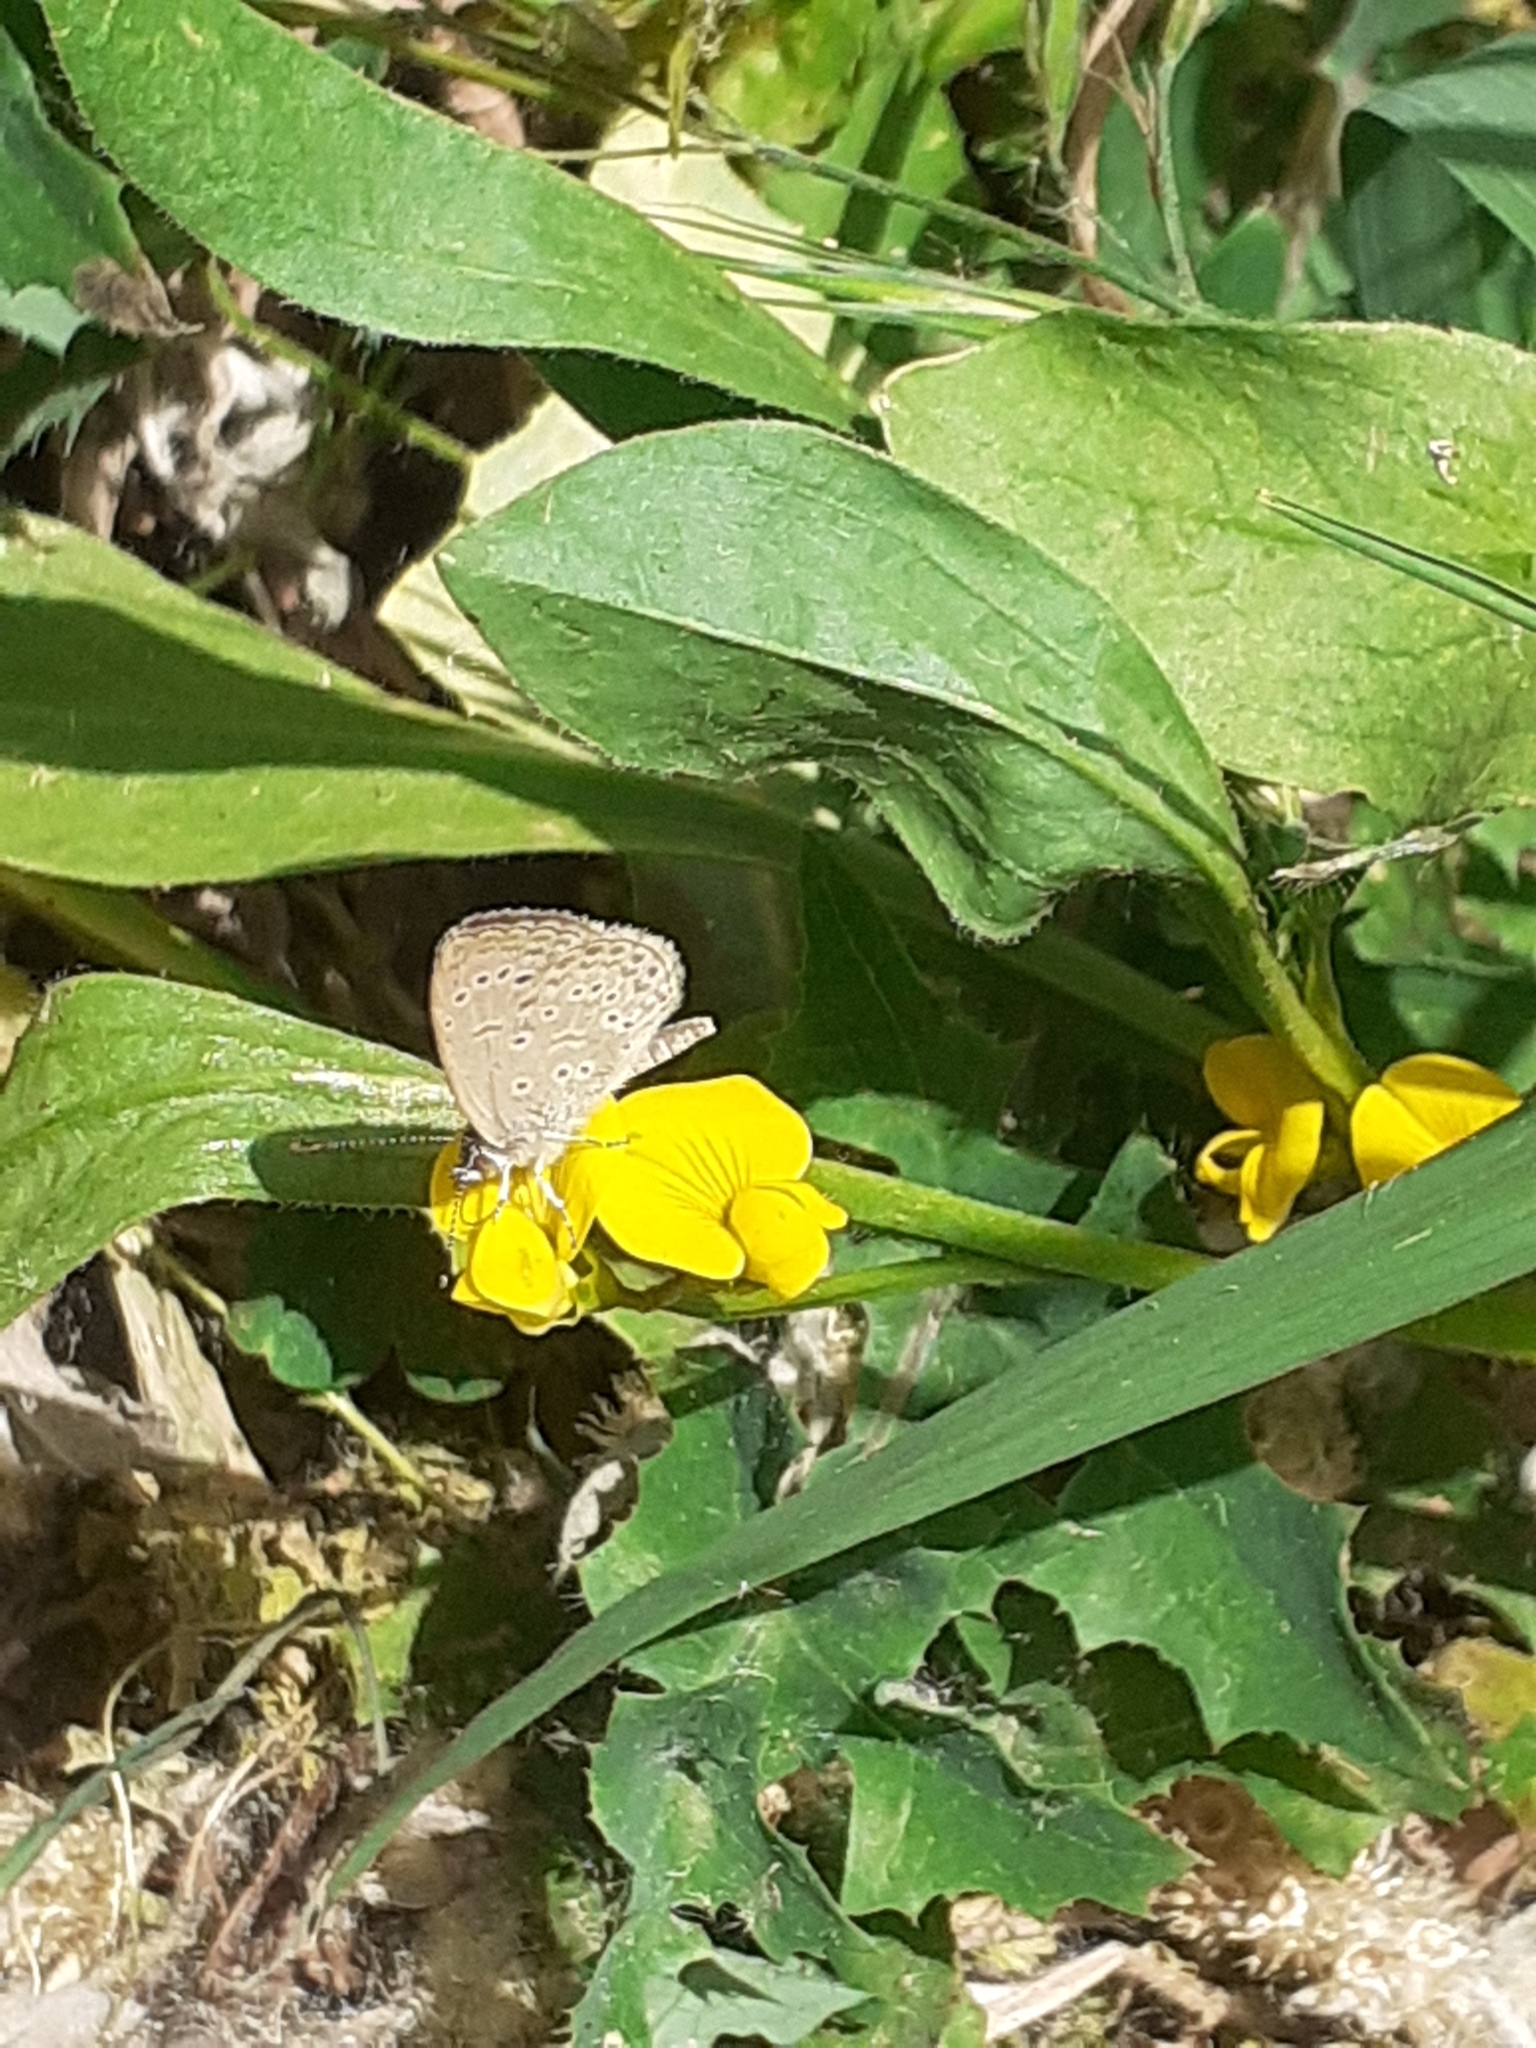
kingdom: Animalia
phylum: Arthropoda
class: Insecta
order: Lepidoptera
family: Lycaenidae
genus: Zizeeria
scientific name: Zizeeria knysna
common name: African grass blue
